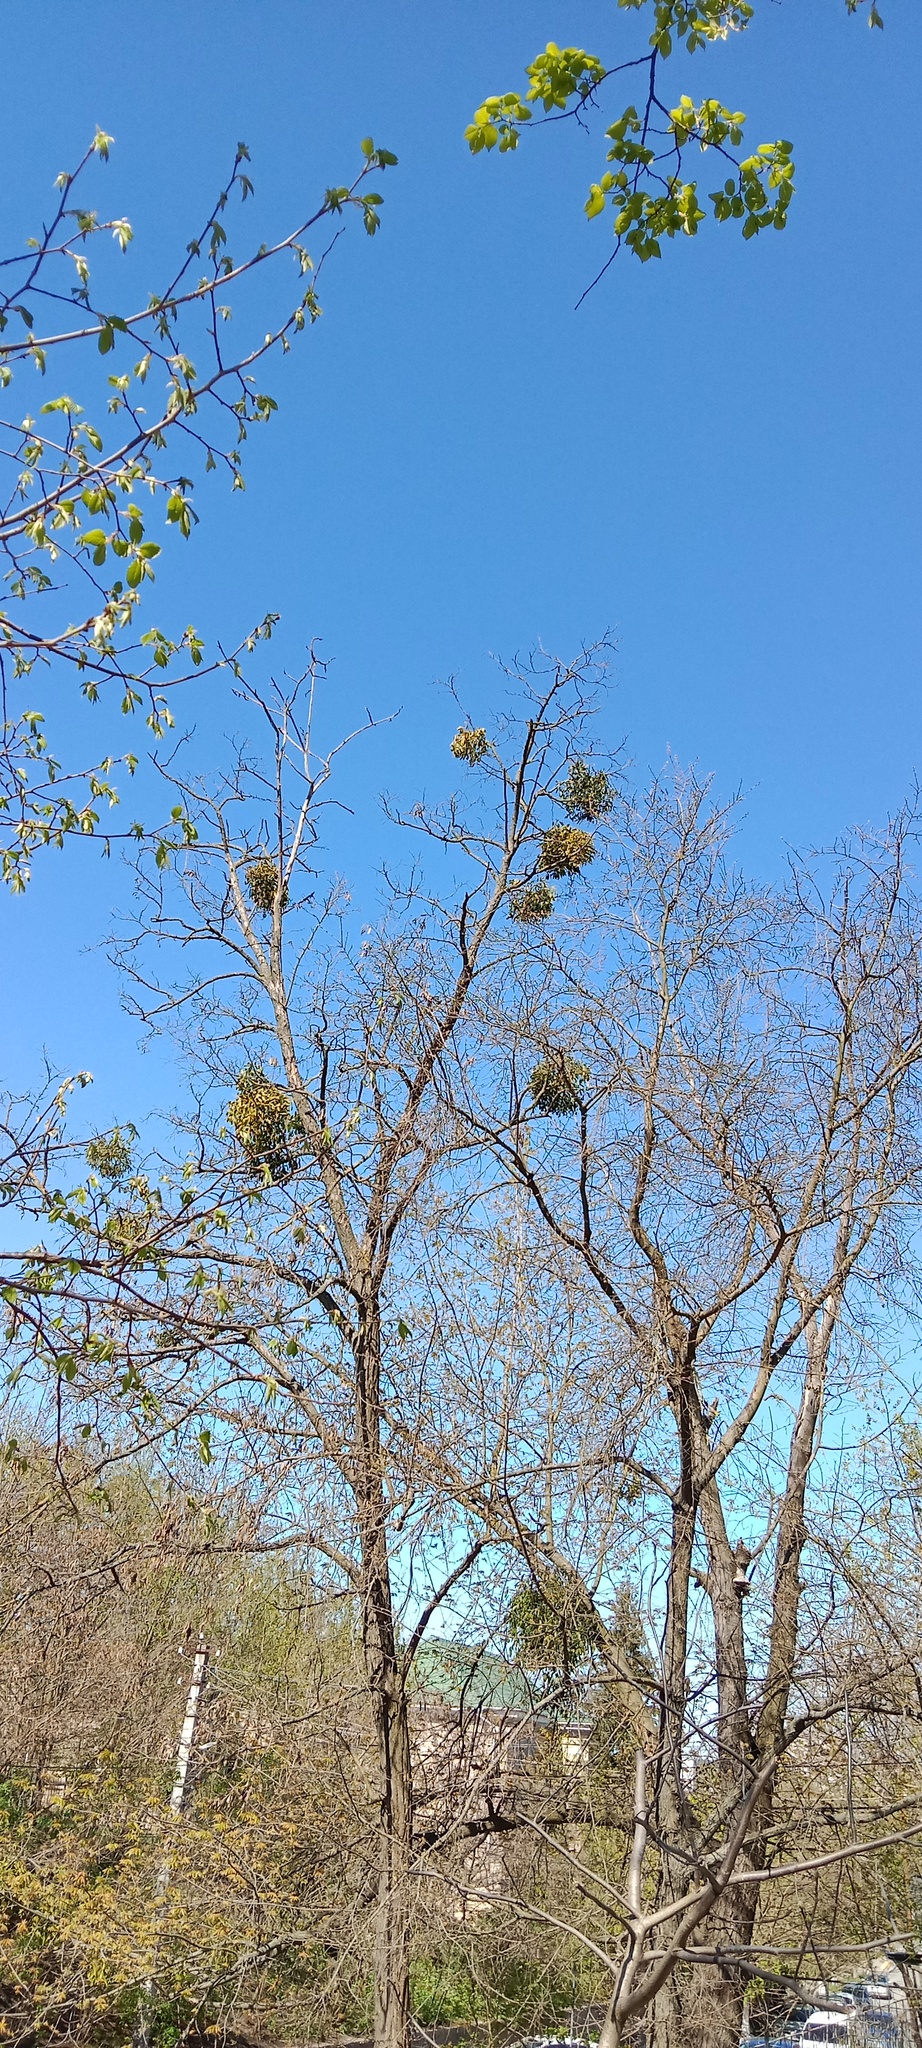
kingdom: Plantae
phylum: Tracheophyta
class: Magnoliopsida
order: Santalales
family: Viscaceae
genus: Viscum
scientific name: Viscum album
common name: Mistletoe
